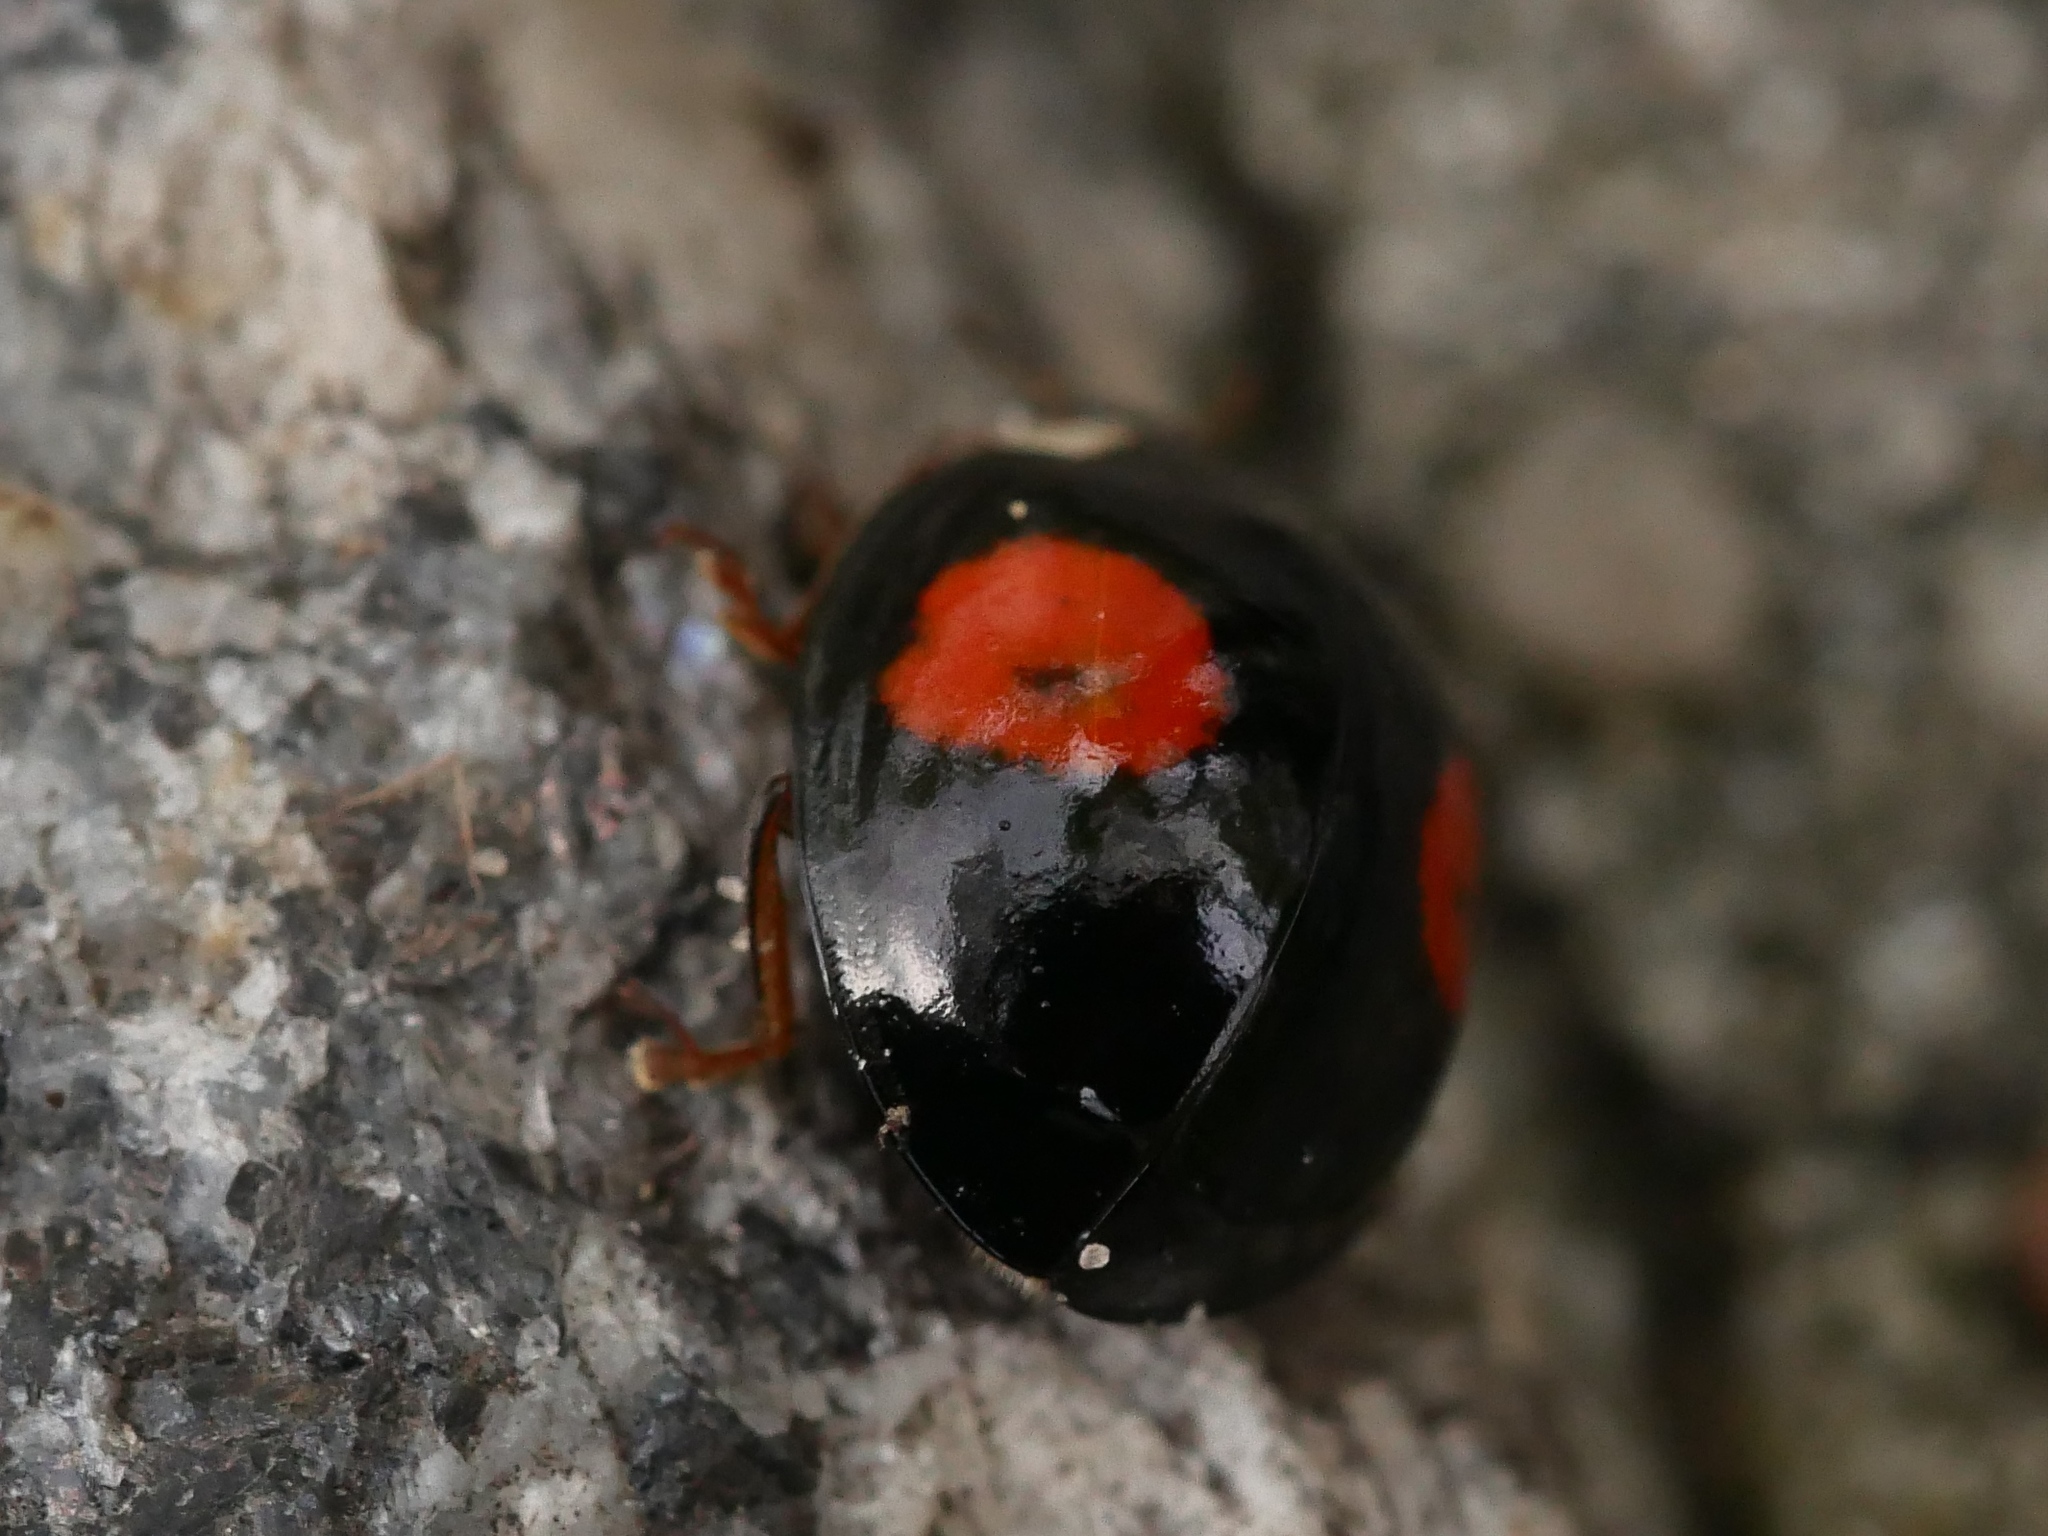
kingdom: Animalia
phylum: Arthropoda
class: Insecta
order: Coleoptera
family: Coccinellidae
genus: Harmonia
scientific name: Harmonia axyridis
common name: Harlequin ladybird
